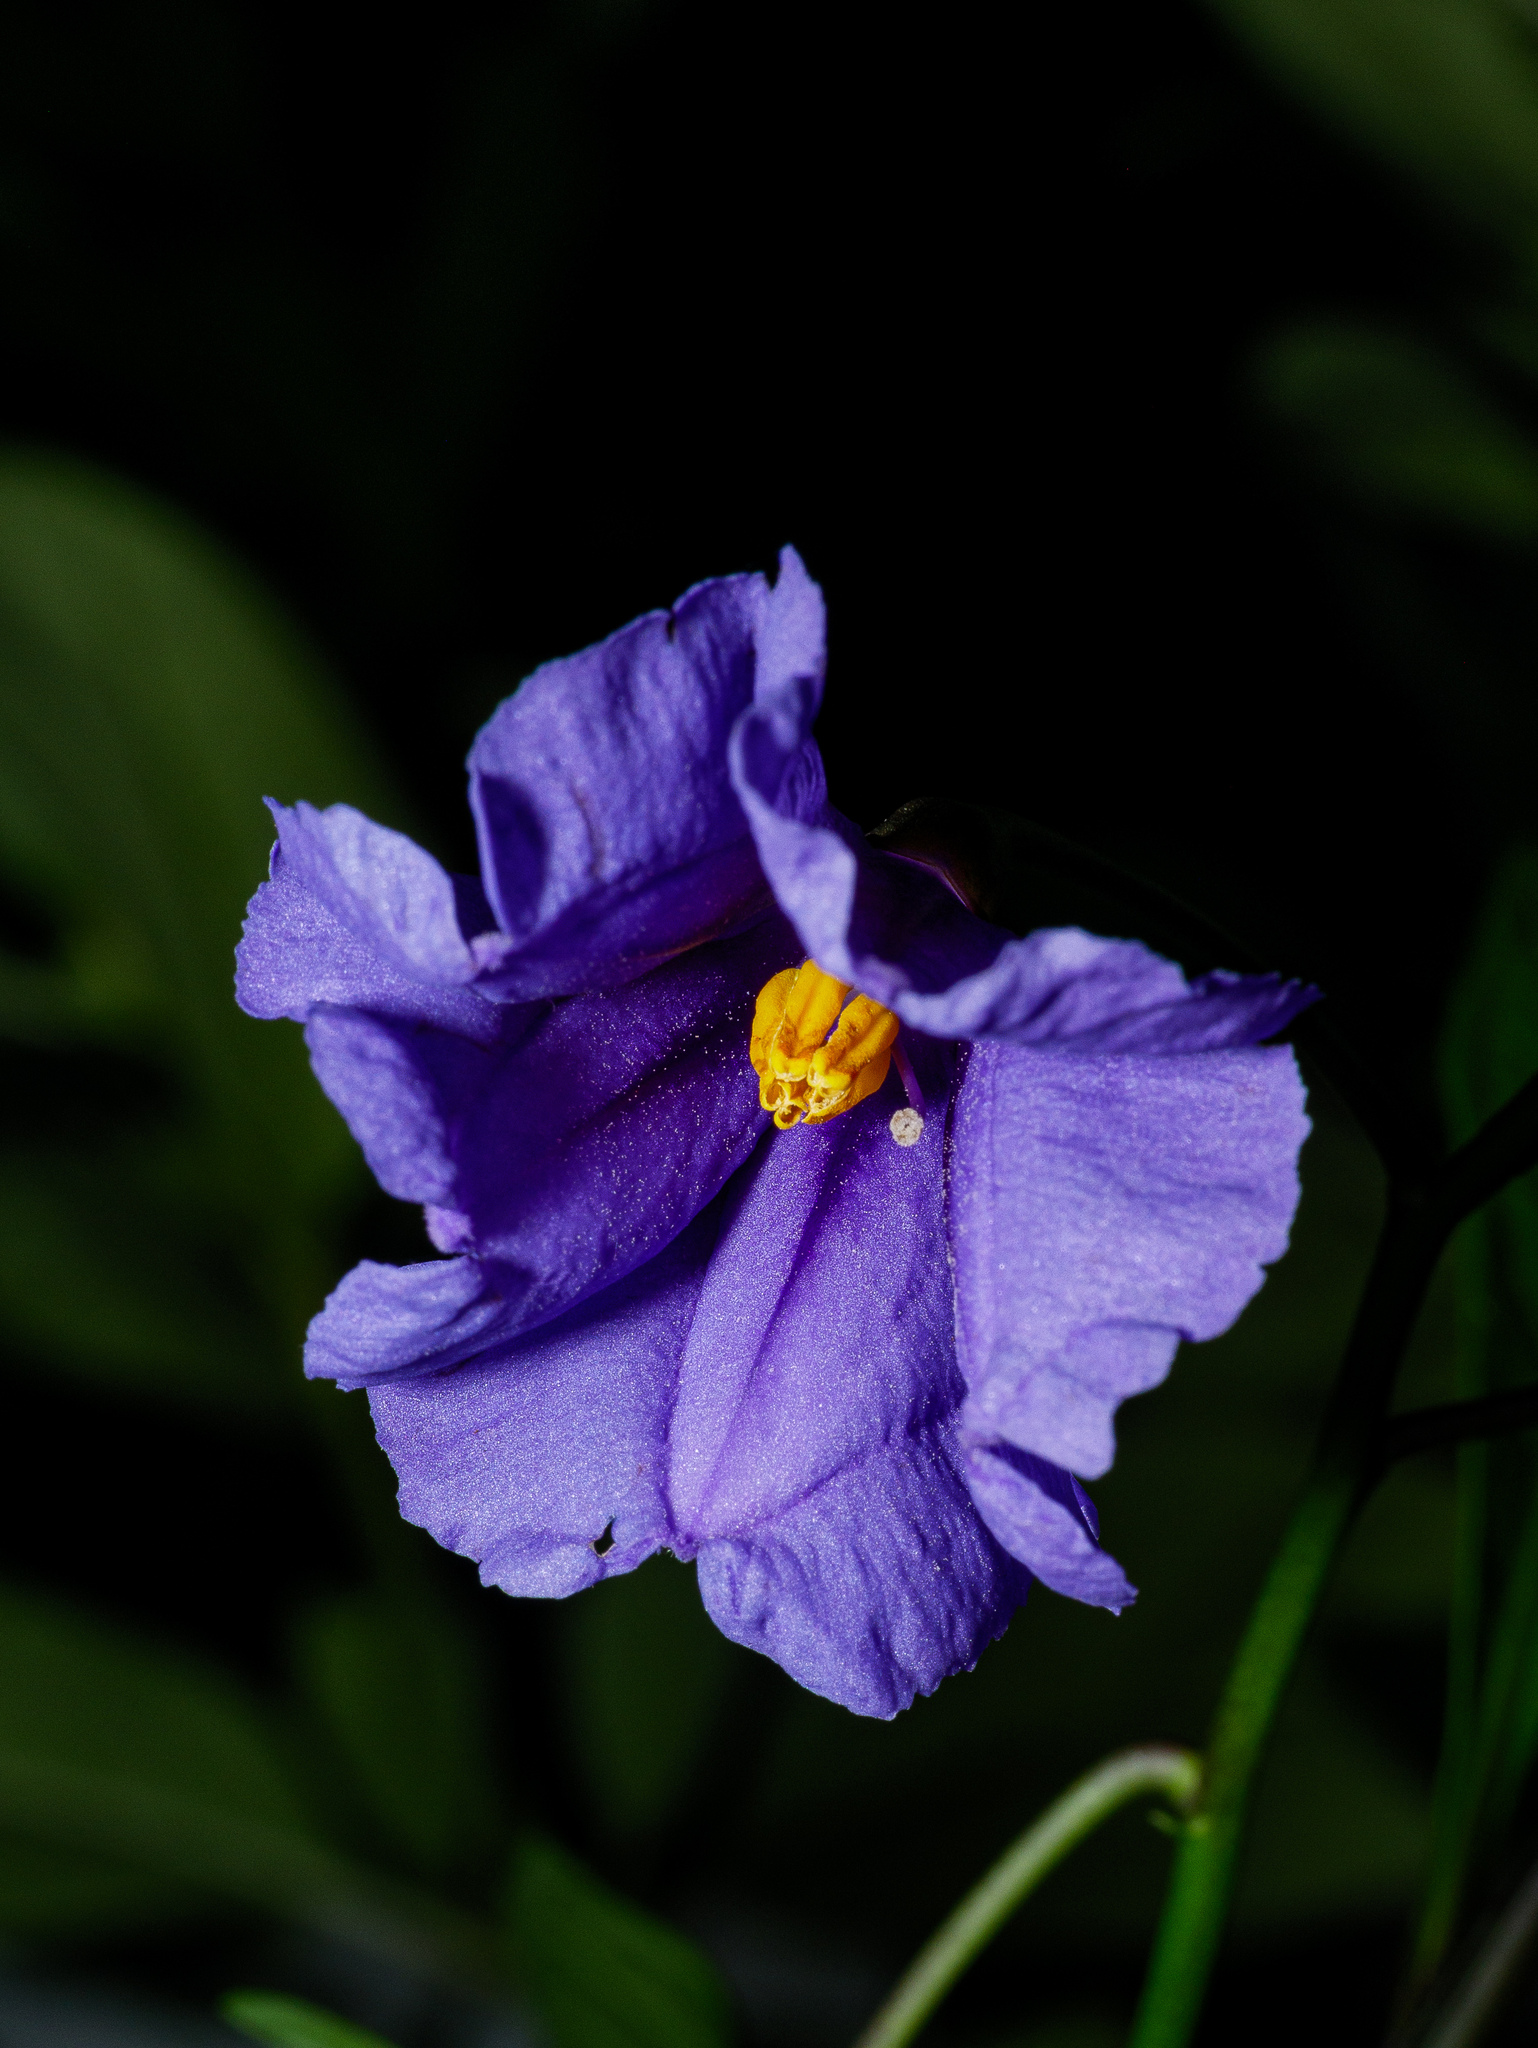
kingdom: Plantae
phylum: Tracheophyta
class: Magnoliopsida
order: Solanales
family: Solanaceae
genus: Solanum
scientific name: Solanum laciniatum
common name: Kangaroo-apple
